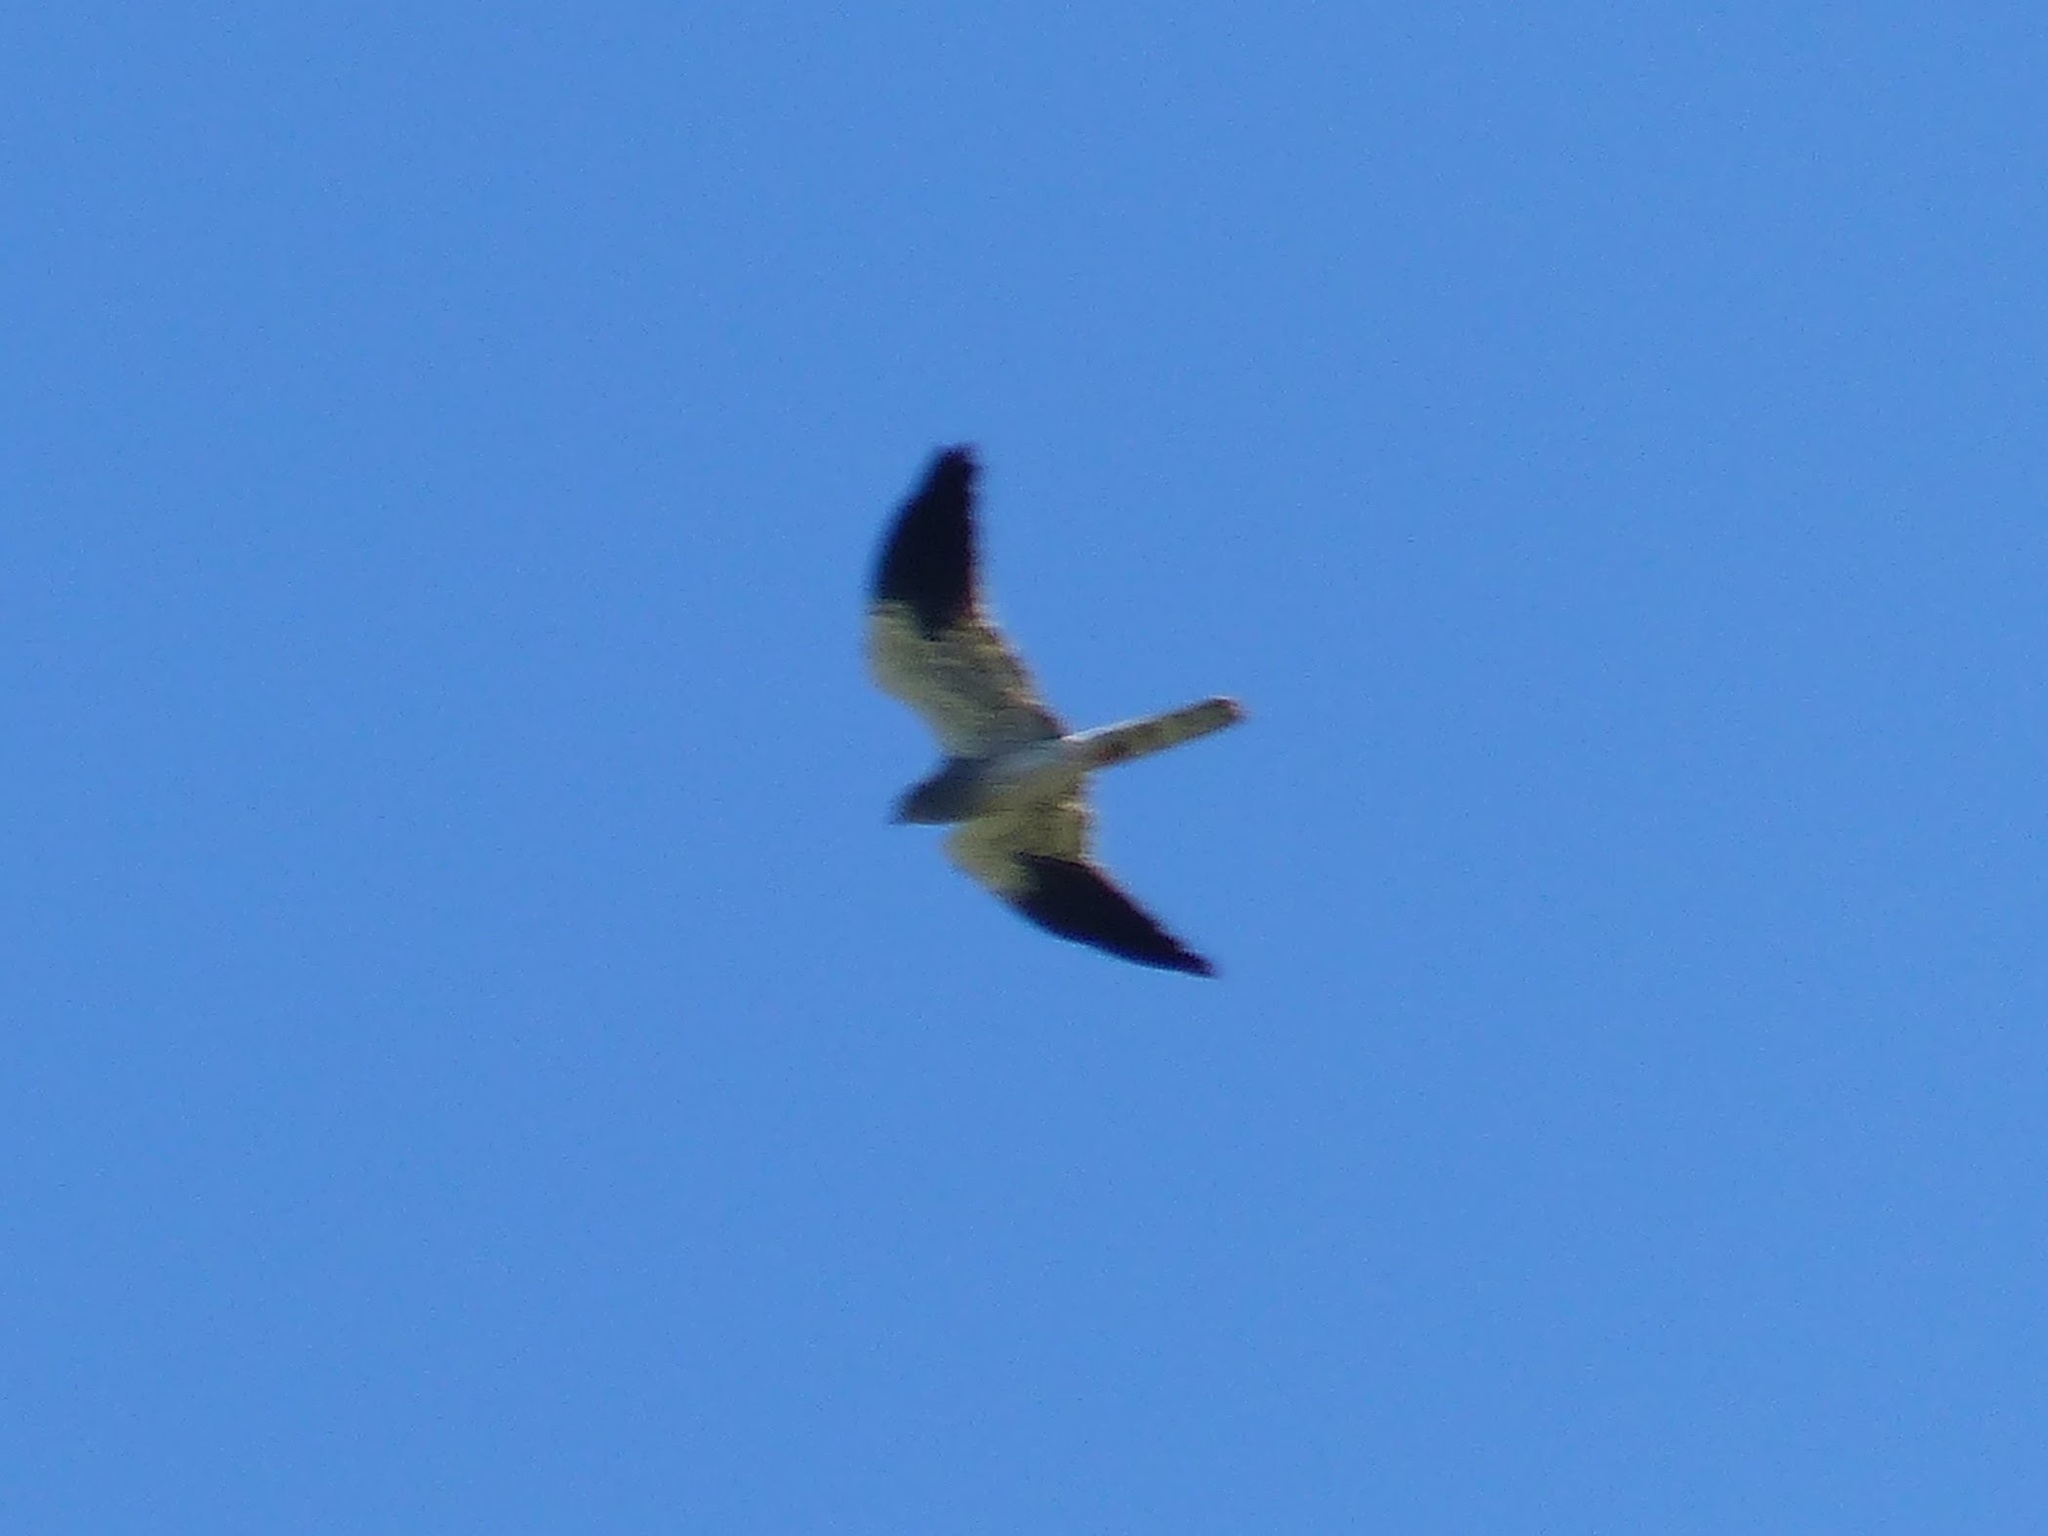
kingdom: Animalia
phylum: Chordata
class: Aves
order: Accipitriformes
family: Accipitridae
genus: Circus
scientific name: Circus pygargus
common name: Montagu's harrier
